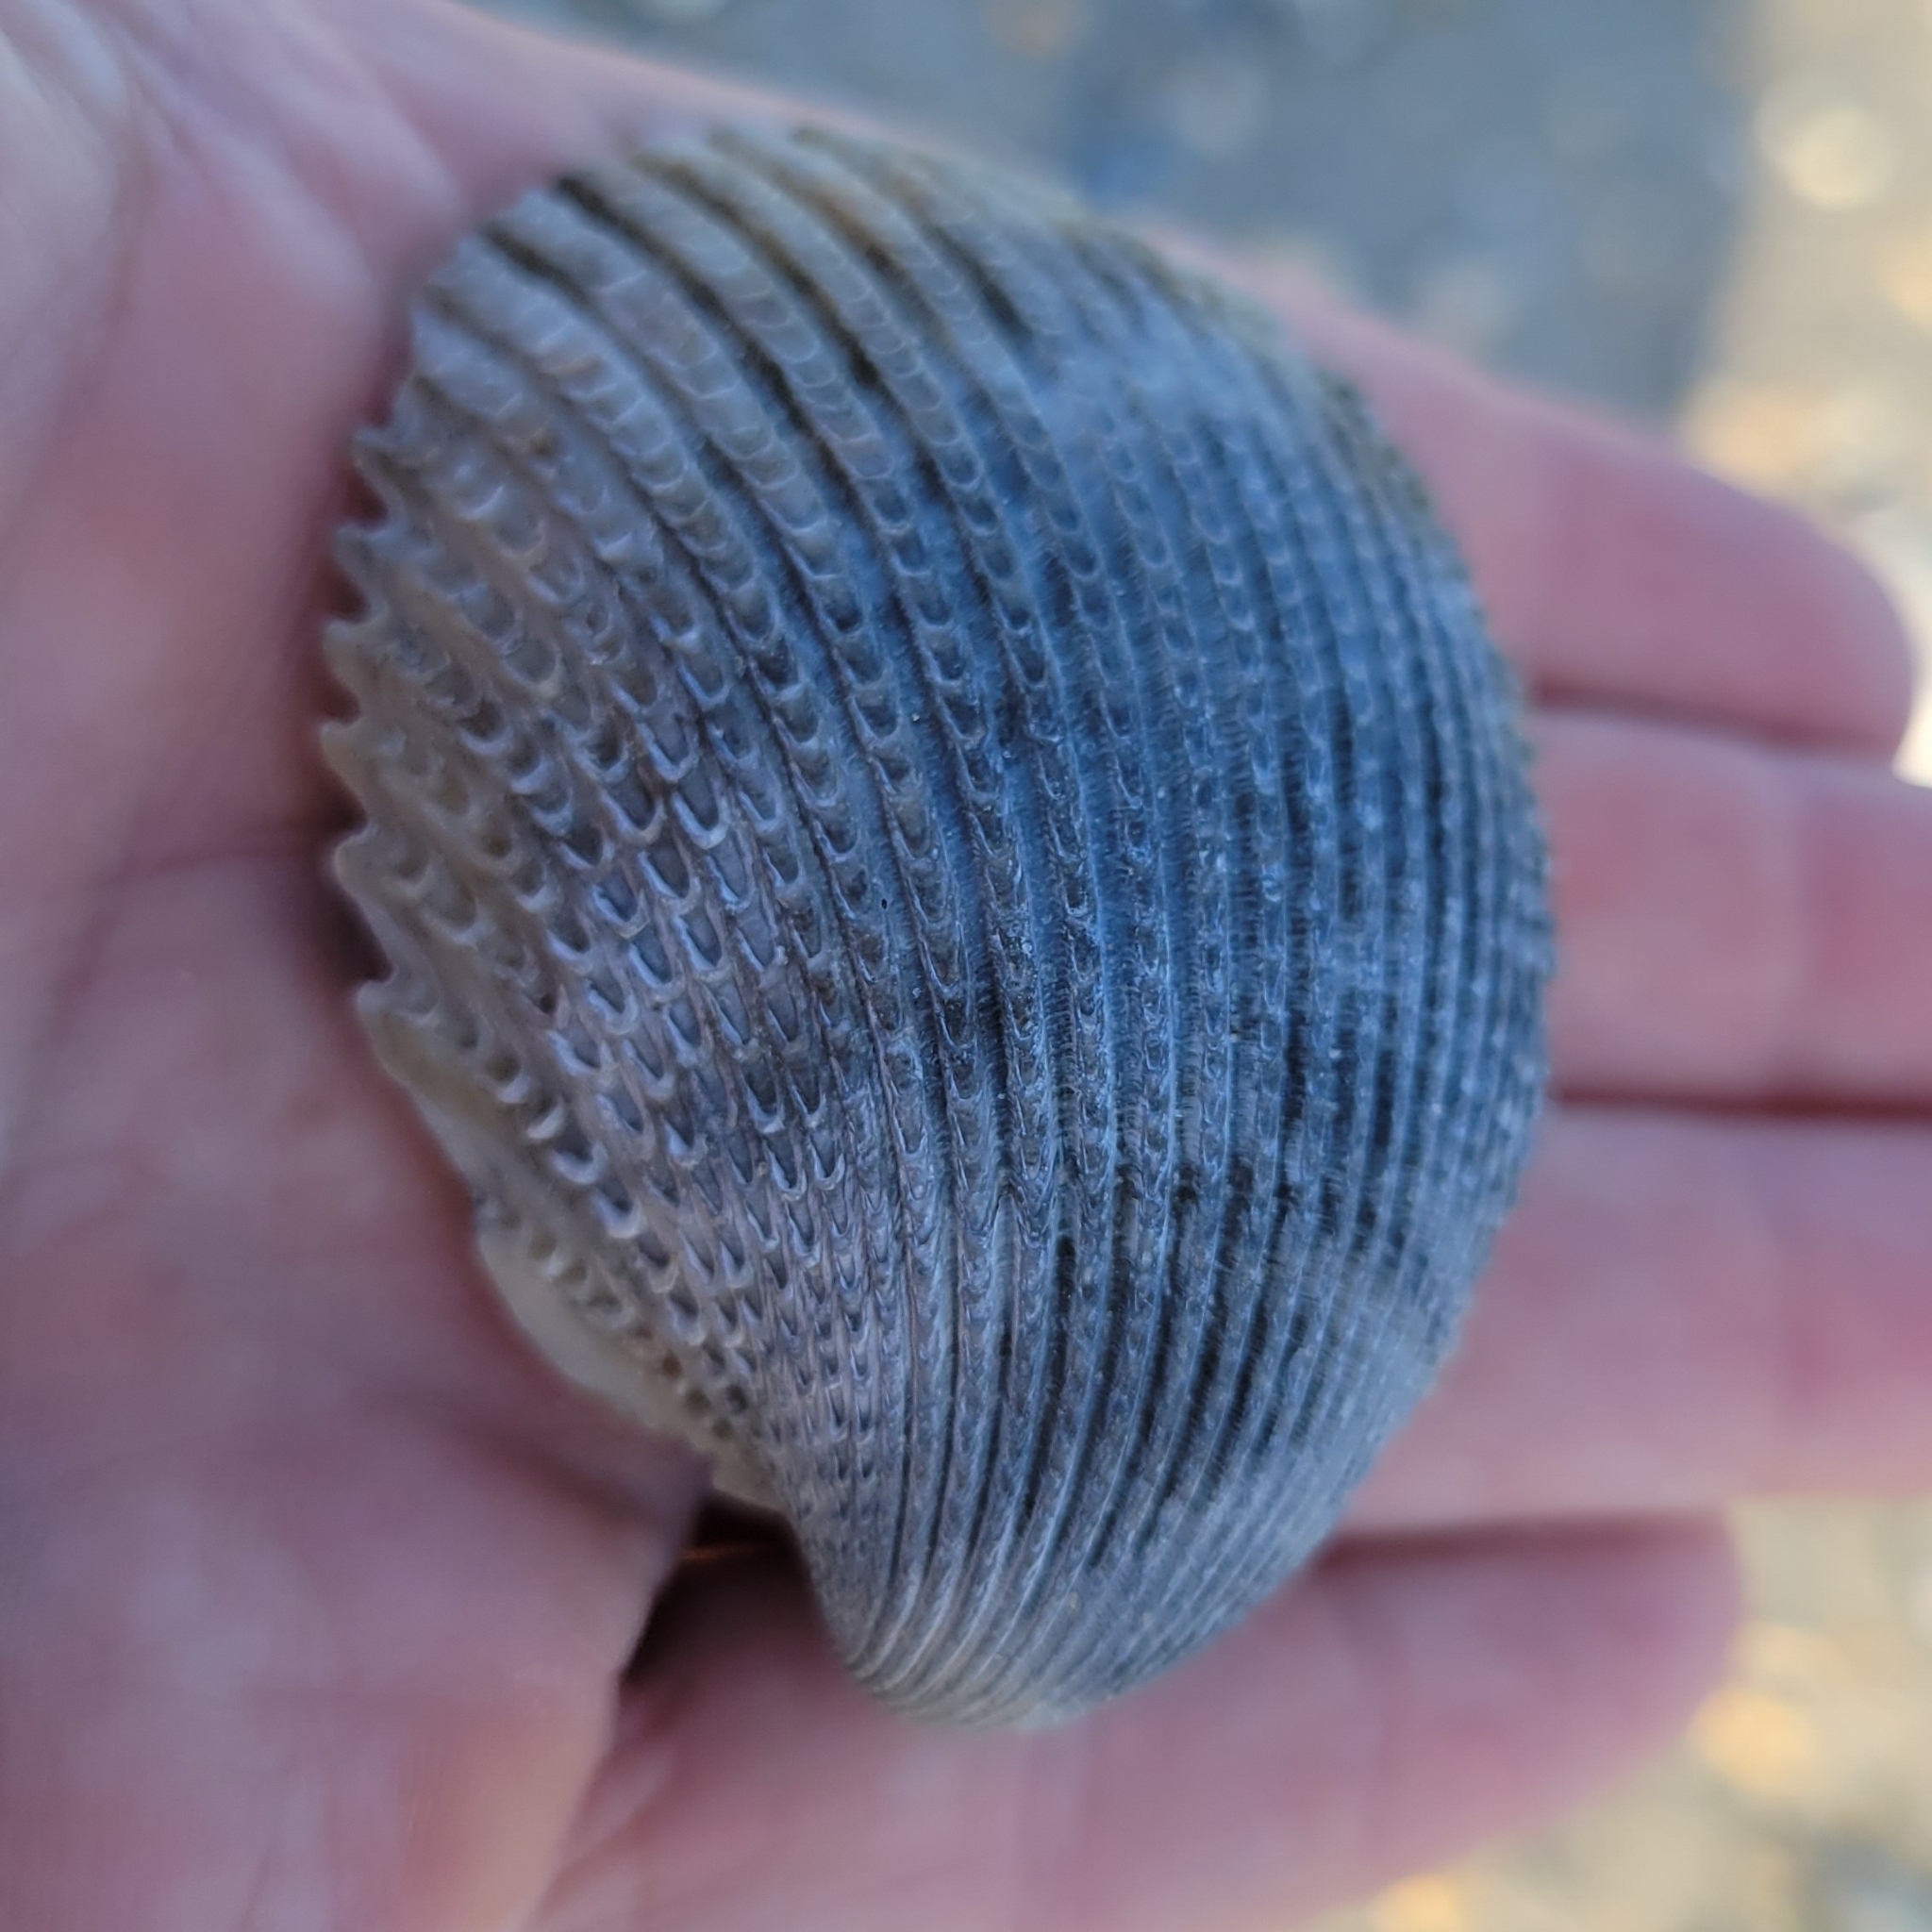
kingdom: Animalia
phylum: Mollusca
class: Bivalvia
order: Cardiida
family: Cardiidae
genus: Trachycardium
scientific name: Trachycardium egmontianum
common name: Florida pricklycockle
